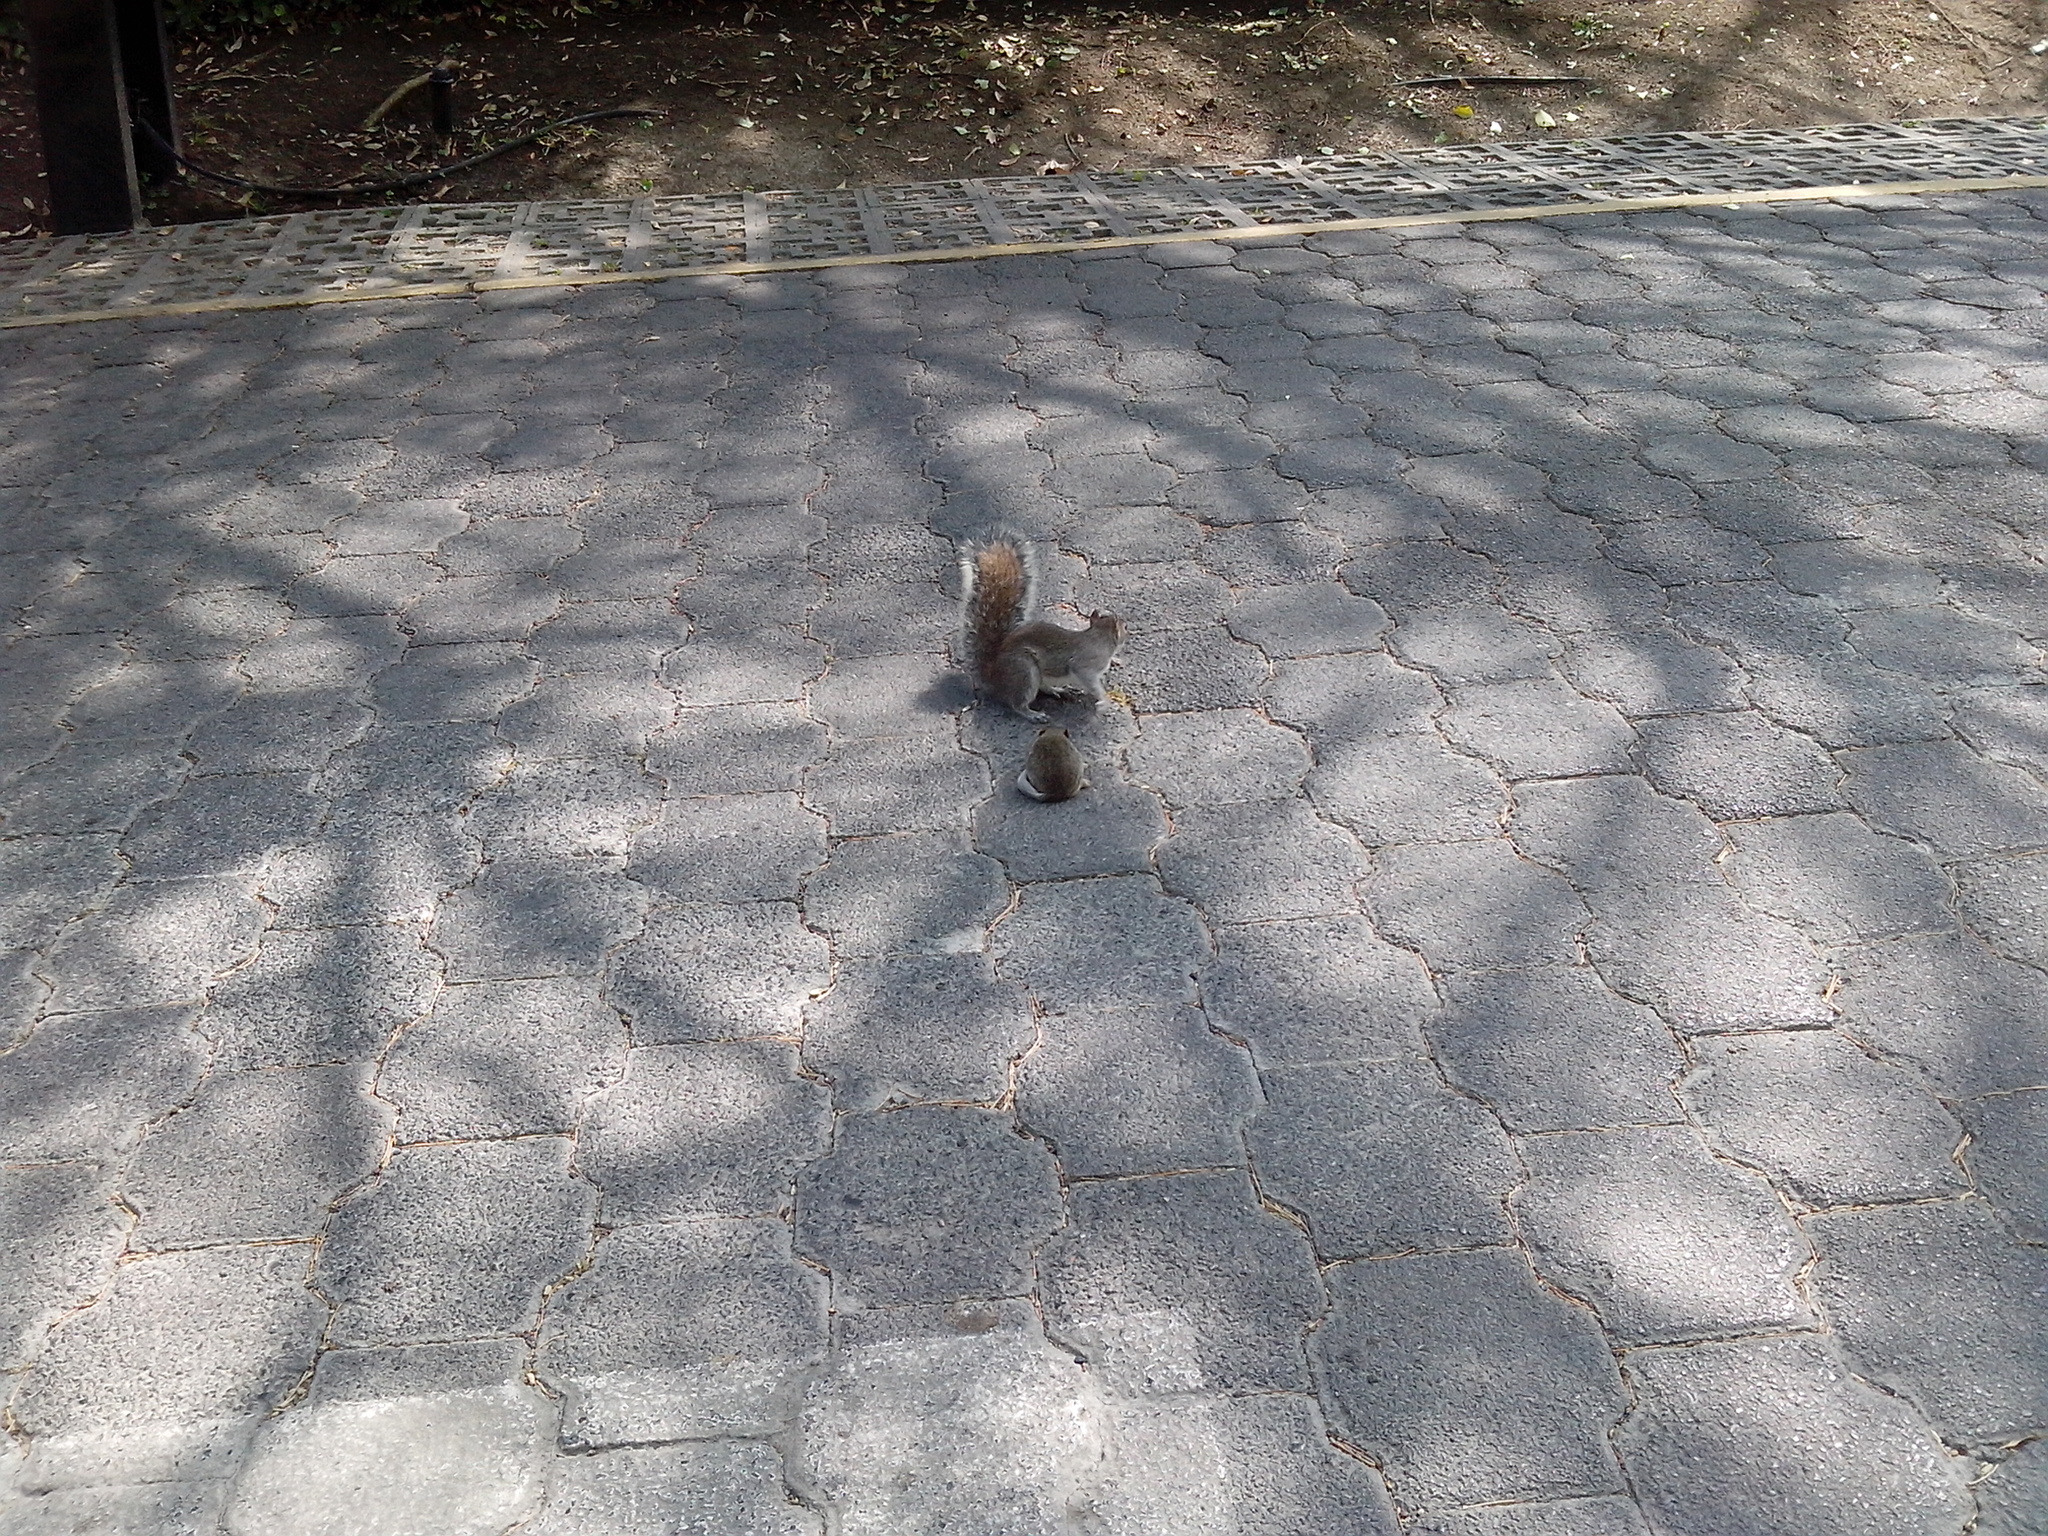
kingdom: Animalia
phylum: Chordata
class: Mammalia
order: Rodentia
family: Sciuridae
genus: Sciurus
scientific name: Sciurus alleni
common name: Allen's squirrel
